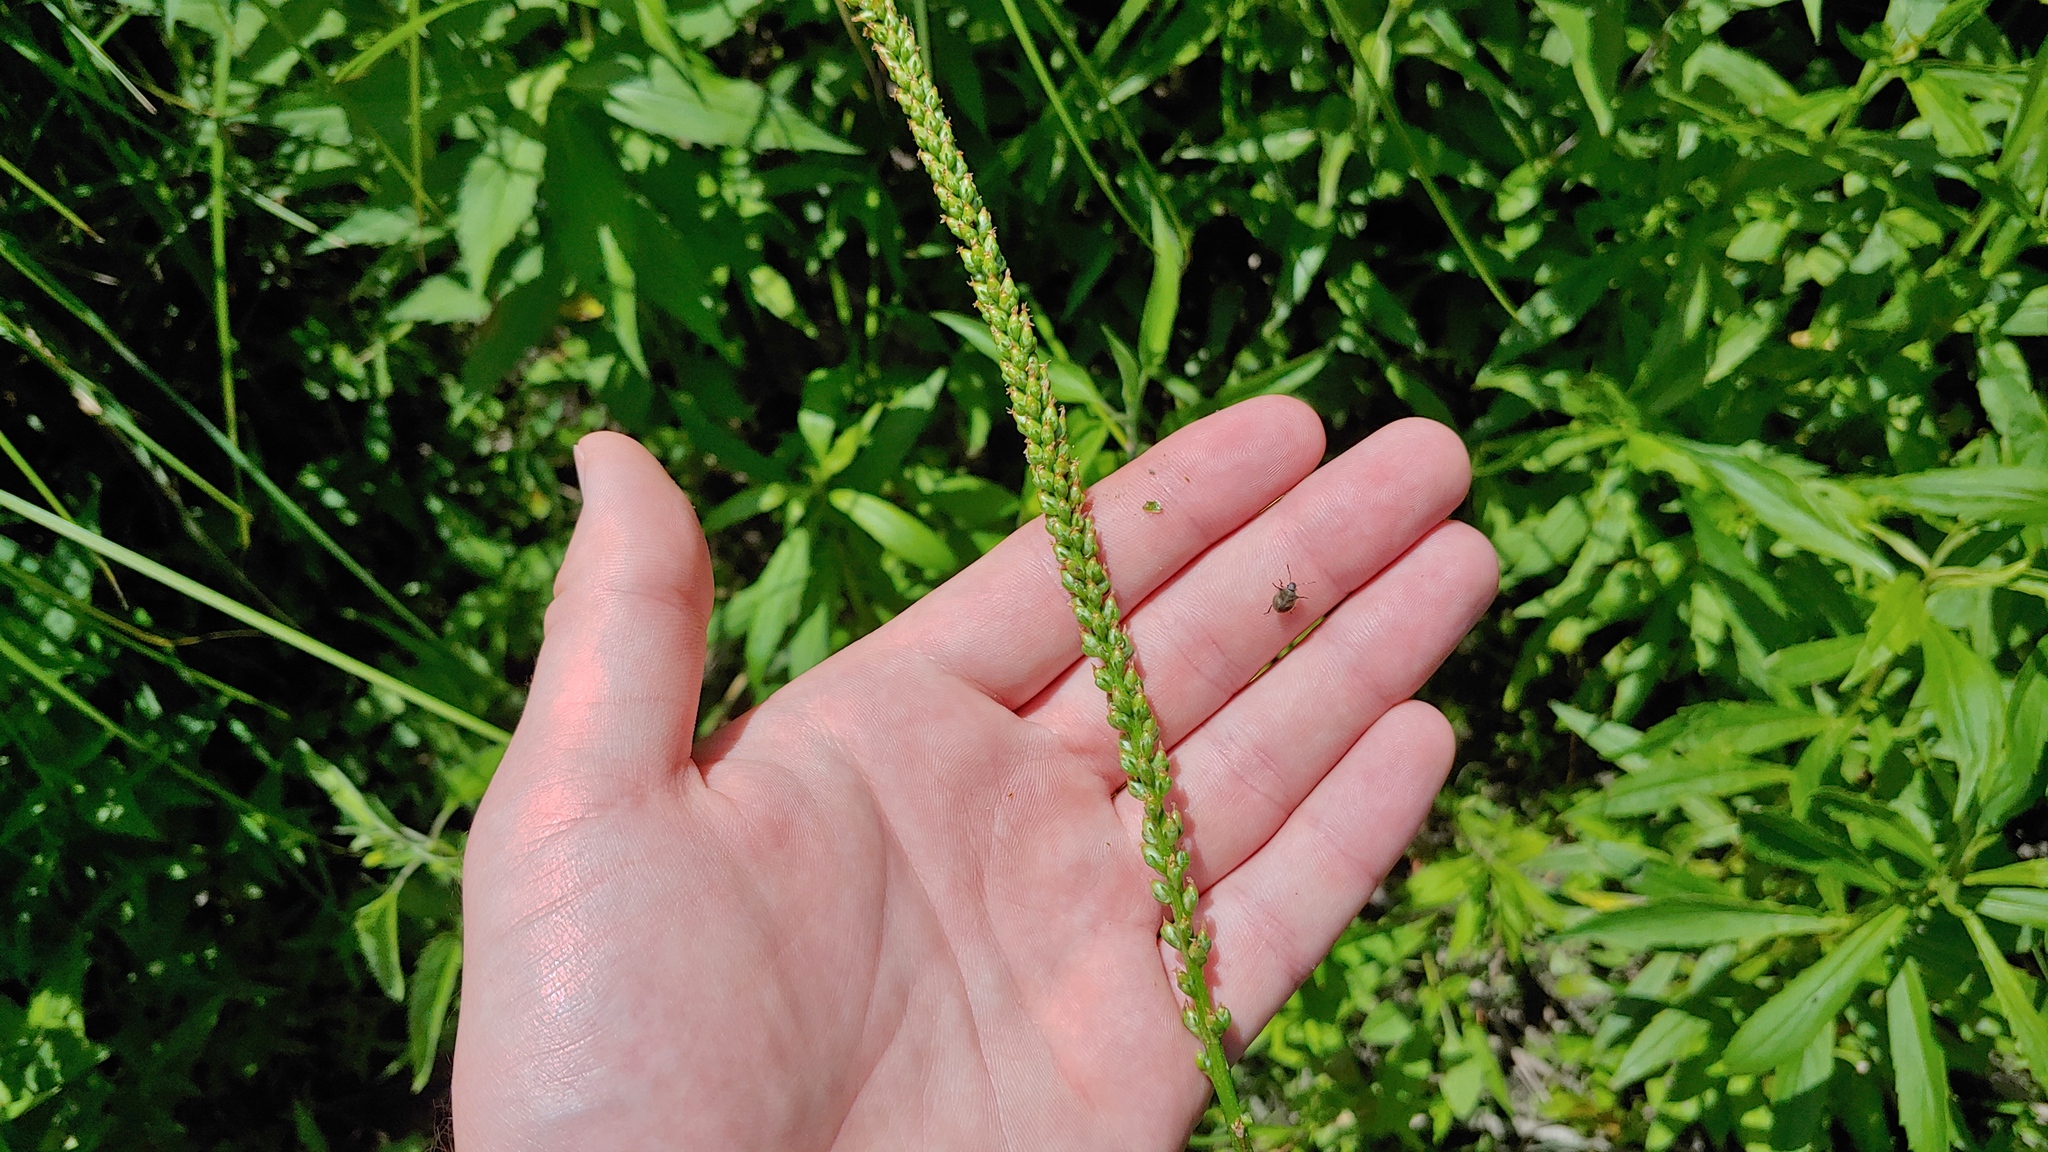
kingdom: Plantae
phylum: Tracheophyta
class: Magnoliopsida
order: Lamiales
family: Plantaginaceae
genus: Plantago
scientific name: Plantago rugelii
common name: American plantain
